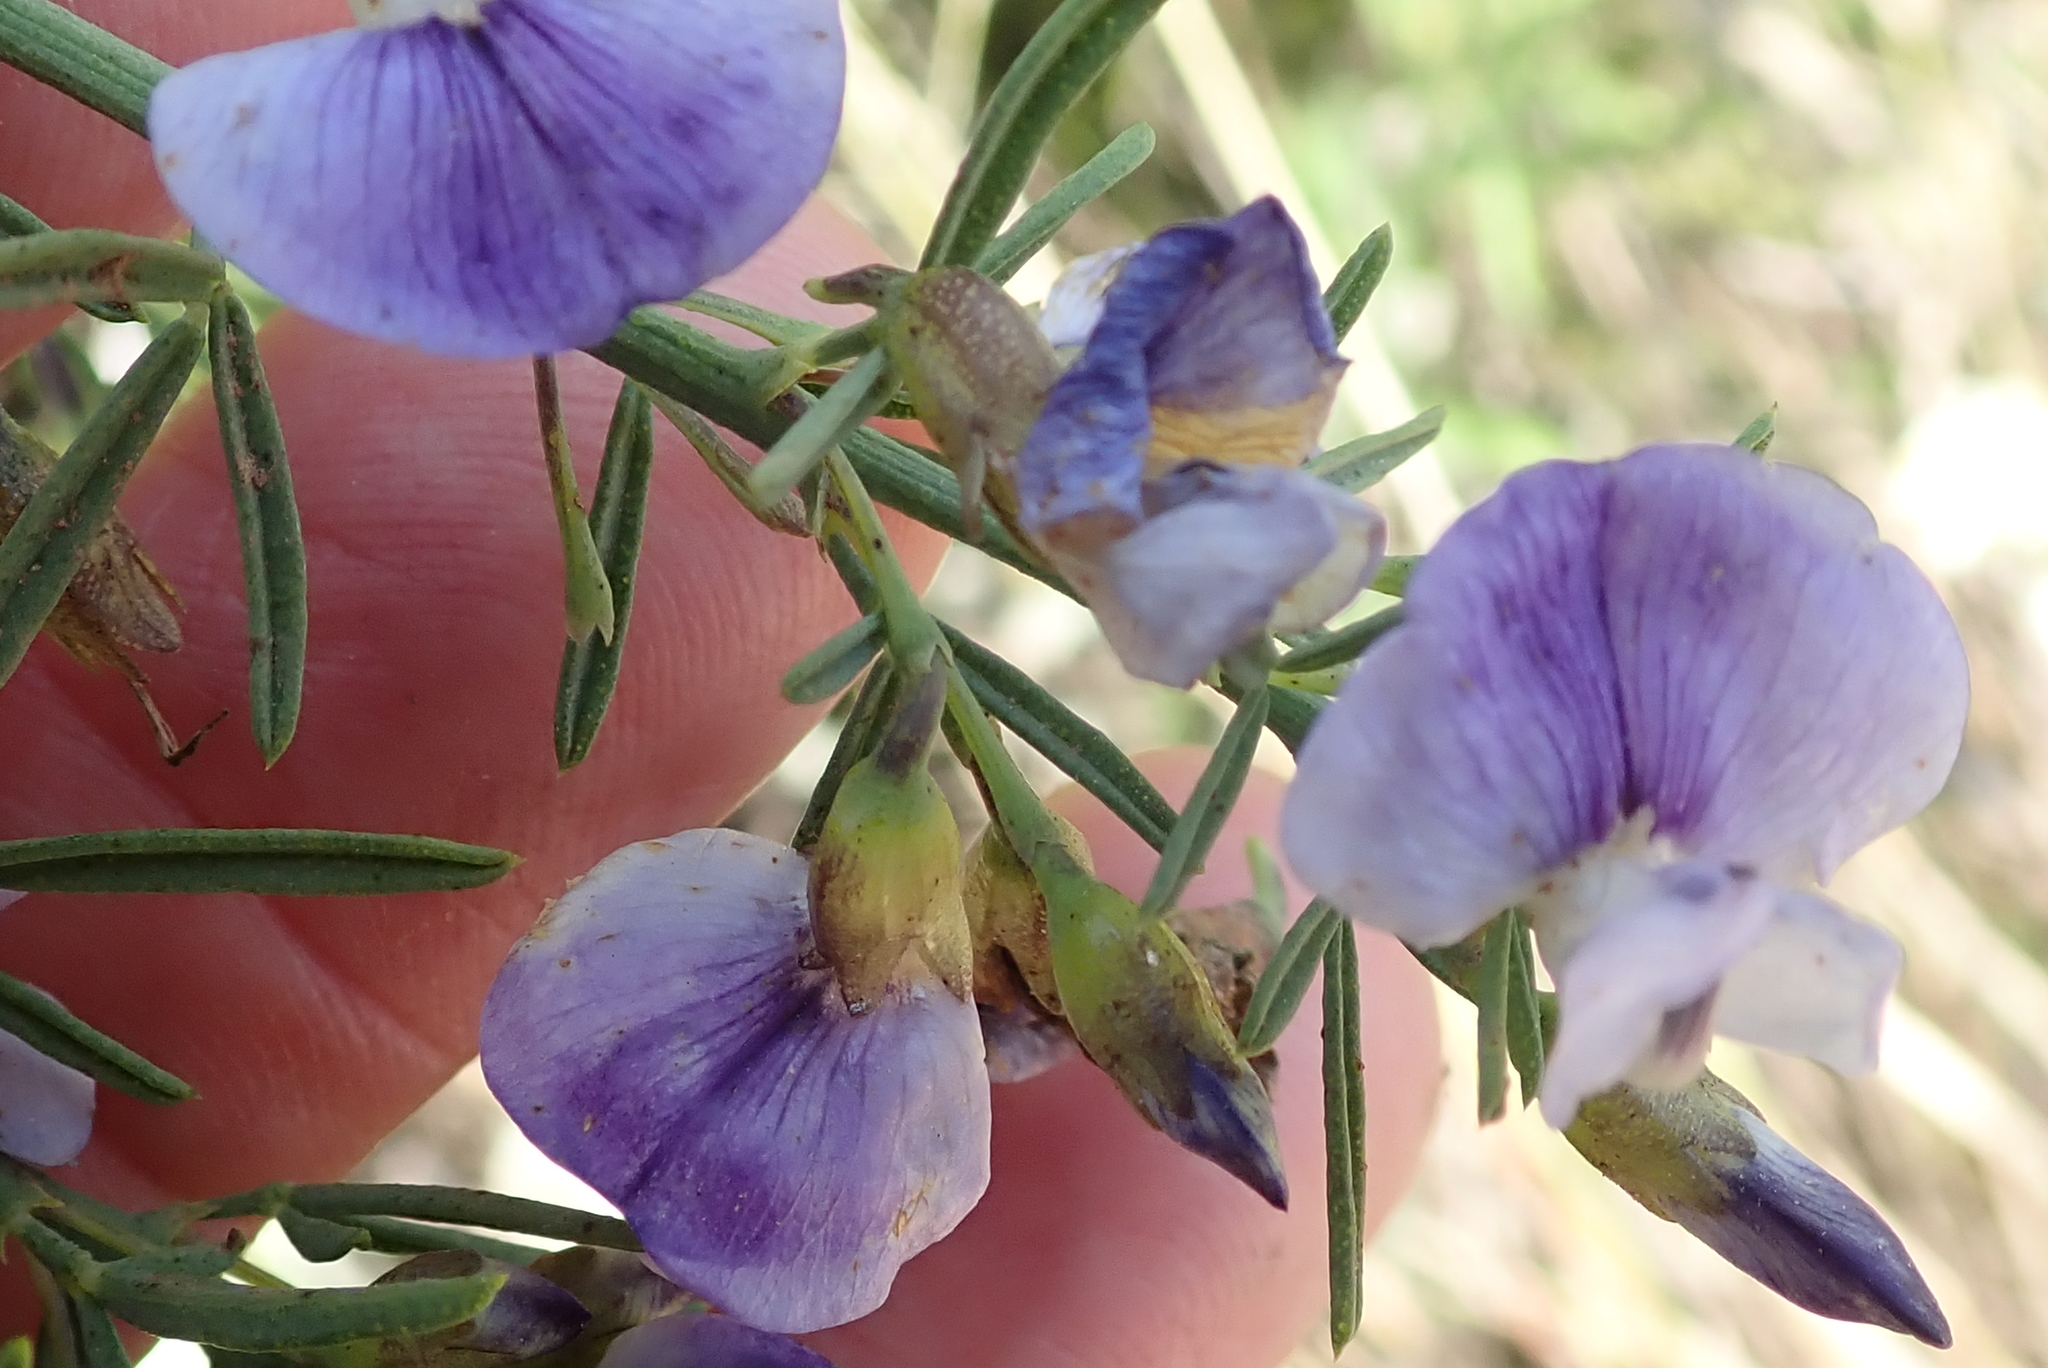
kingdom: Plantae
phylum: Tracheophyta
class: Magnoliopsida
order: Fabales
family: Fabaceae
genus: Psoralea
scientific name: Psoralea axillaris
